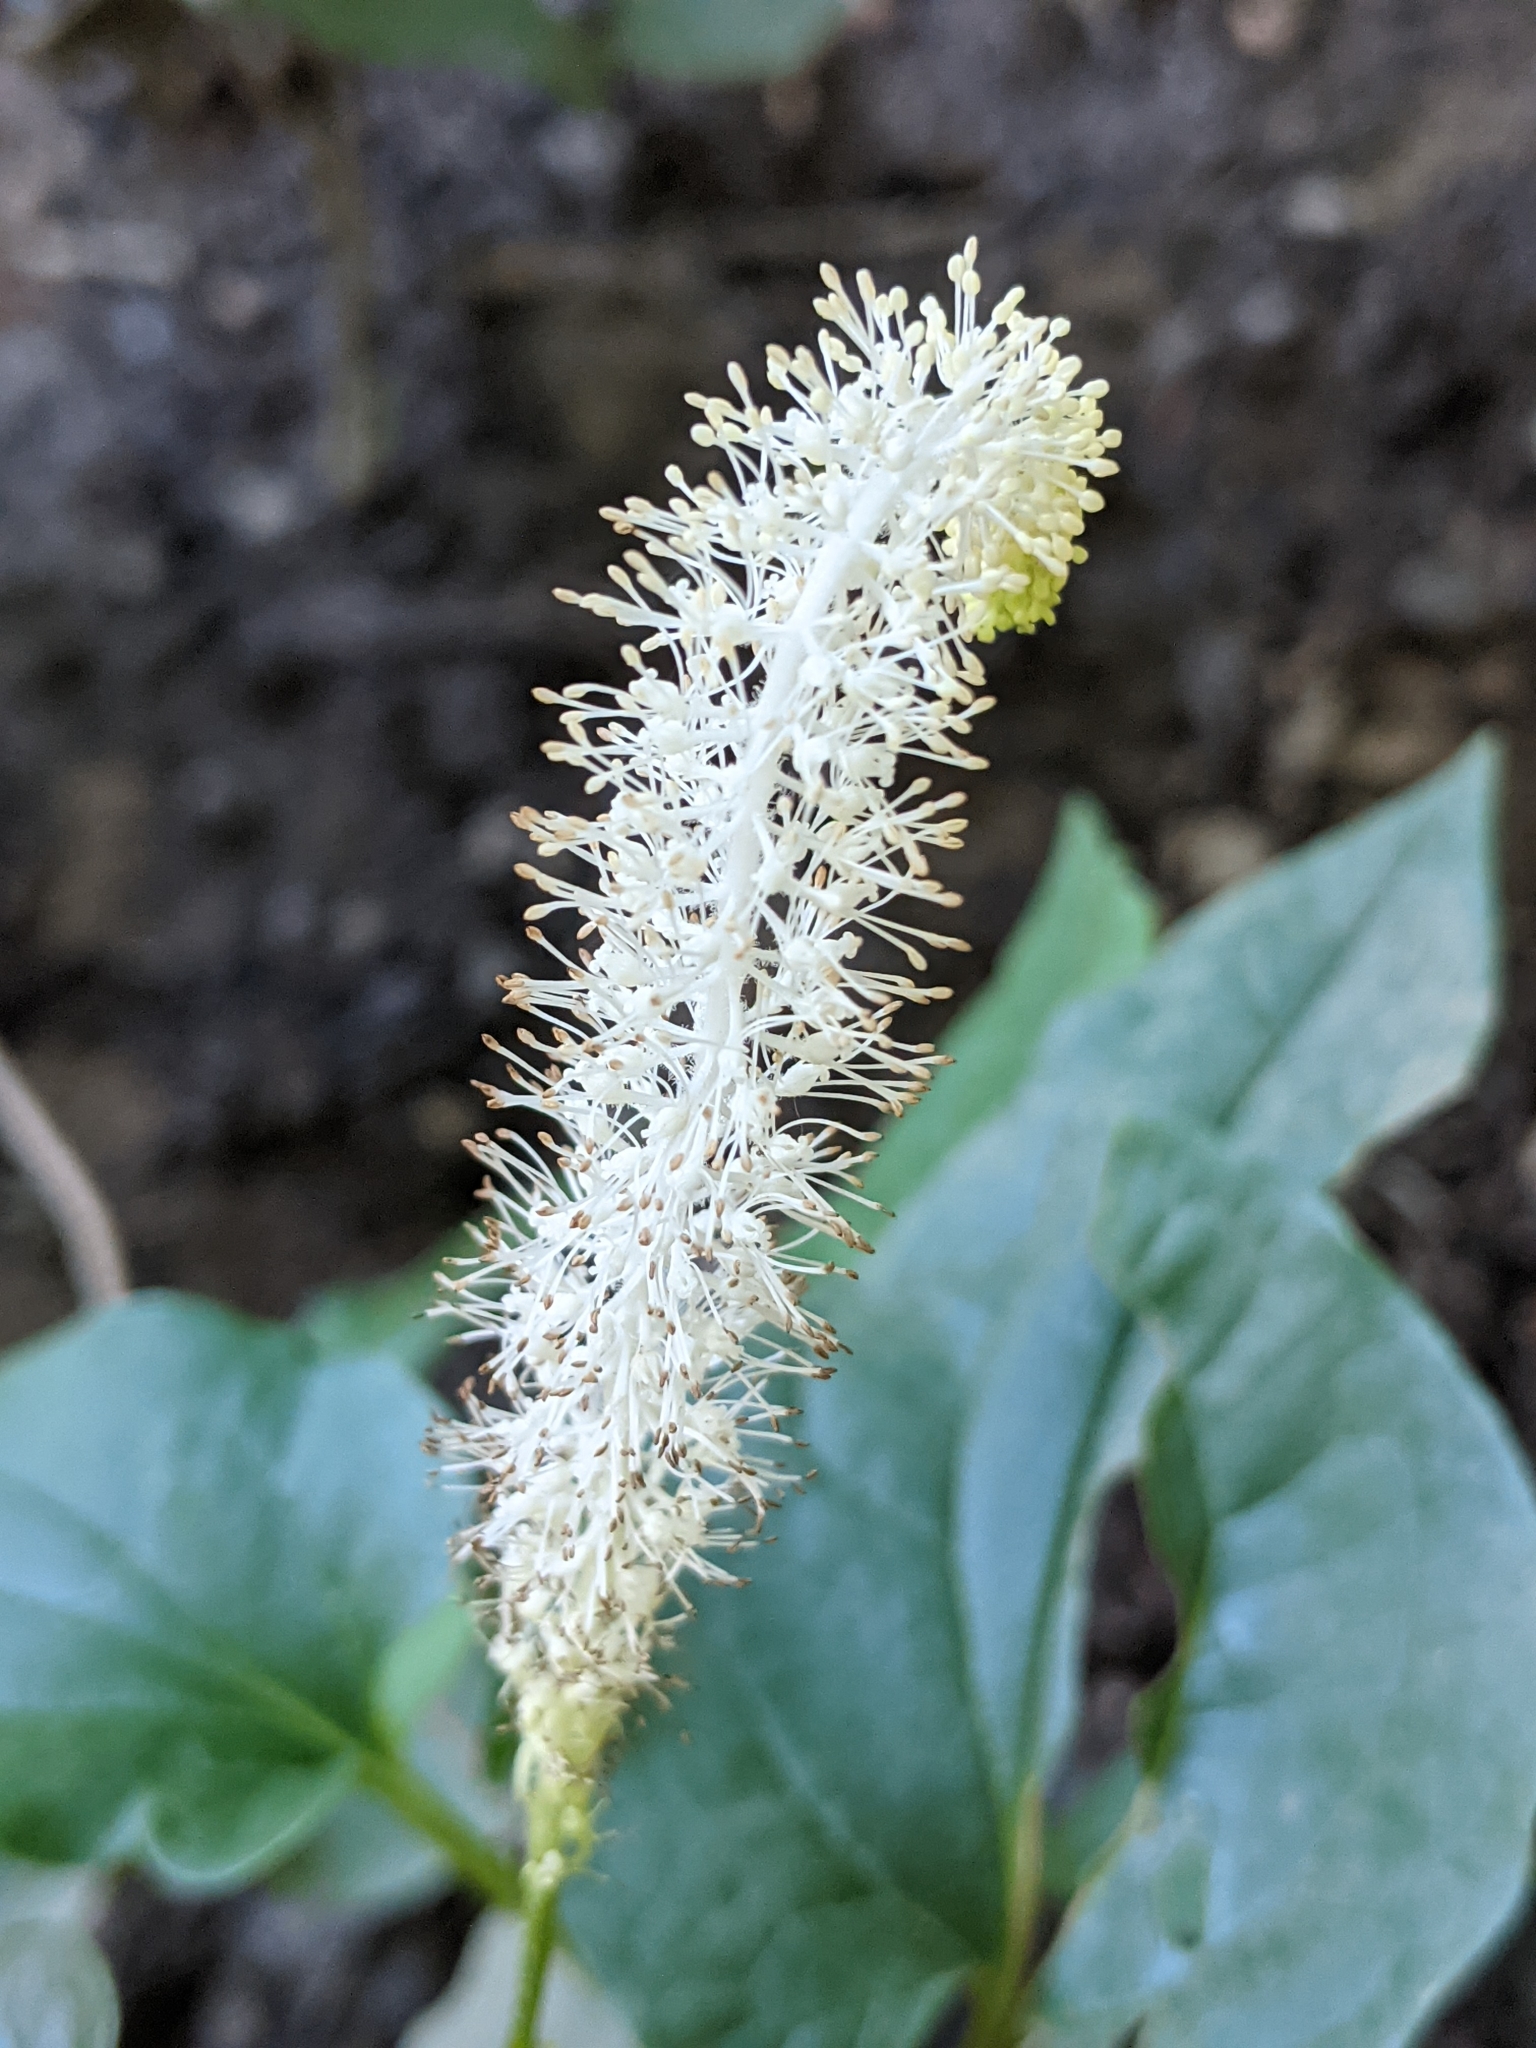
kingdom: Plantae
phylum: Tracheophyta
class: Magnoliopsida
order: Piperales
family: Saururaceae
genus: Saururus
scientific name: Saururus cernuus
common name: Lizard's-tail
